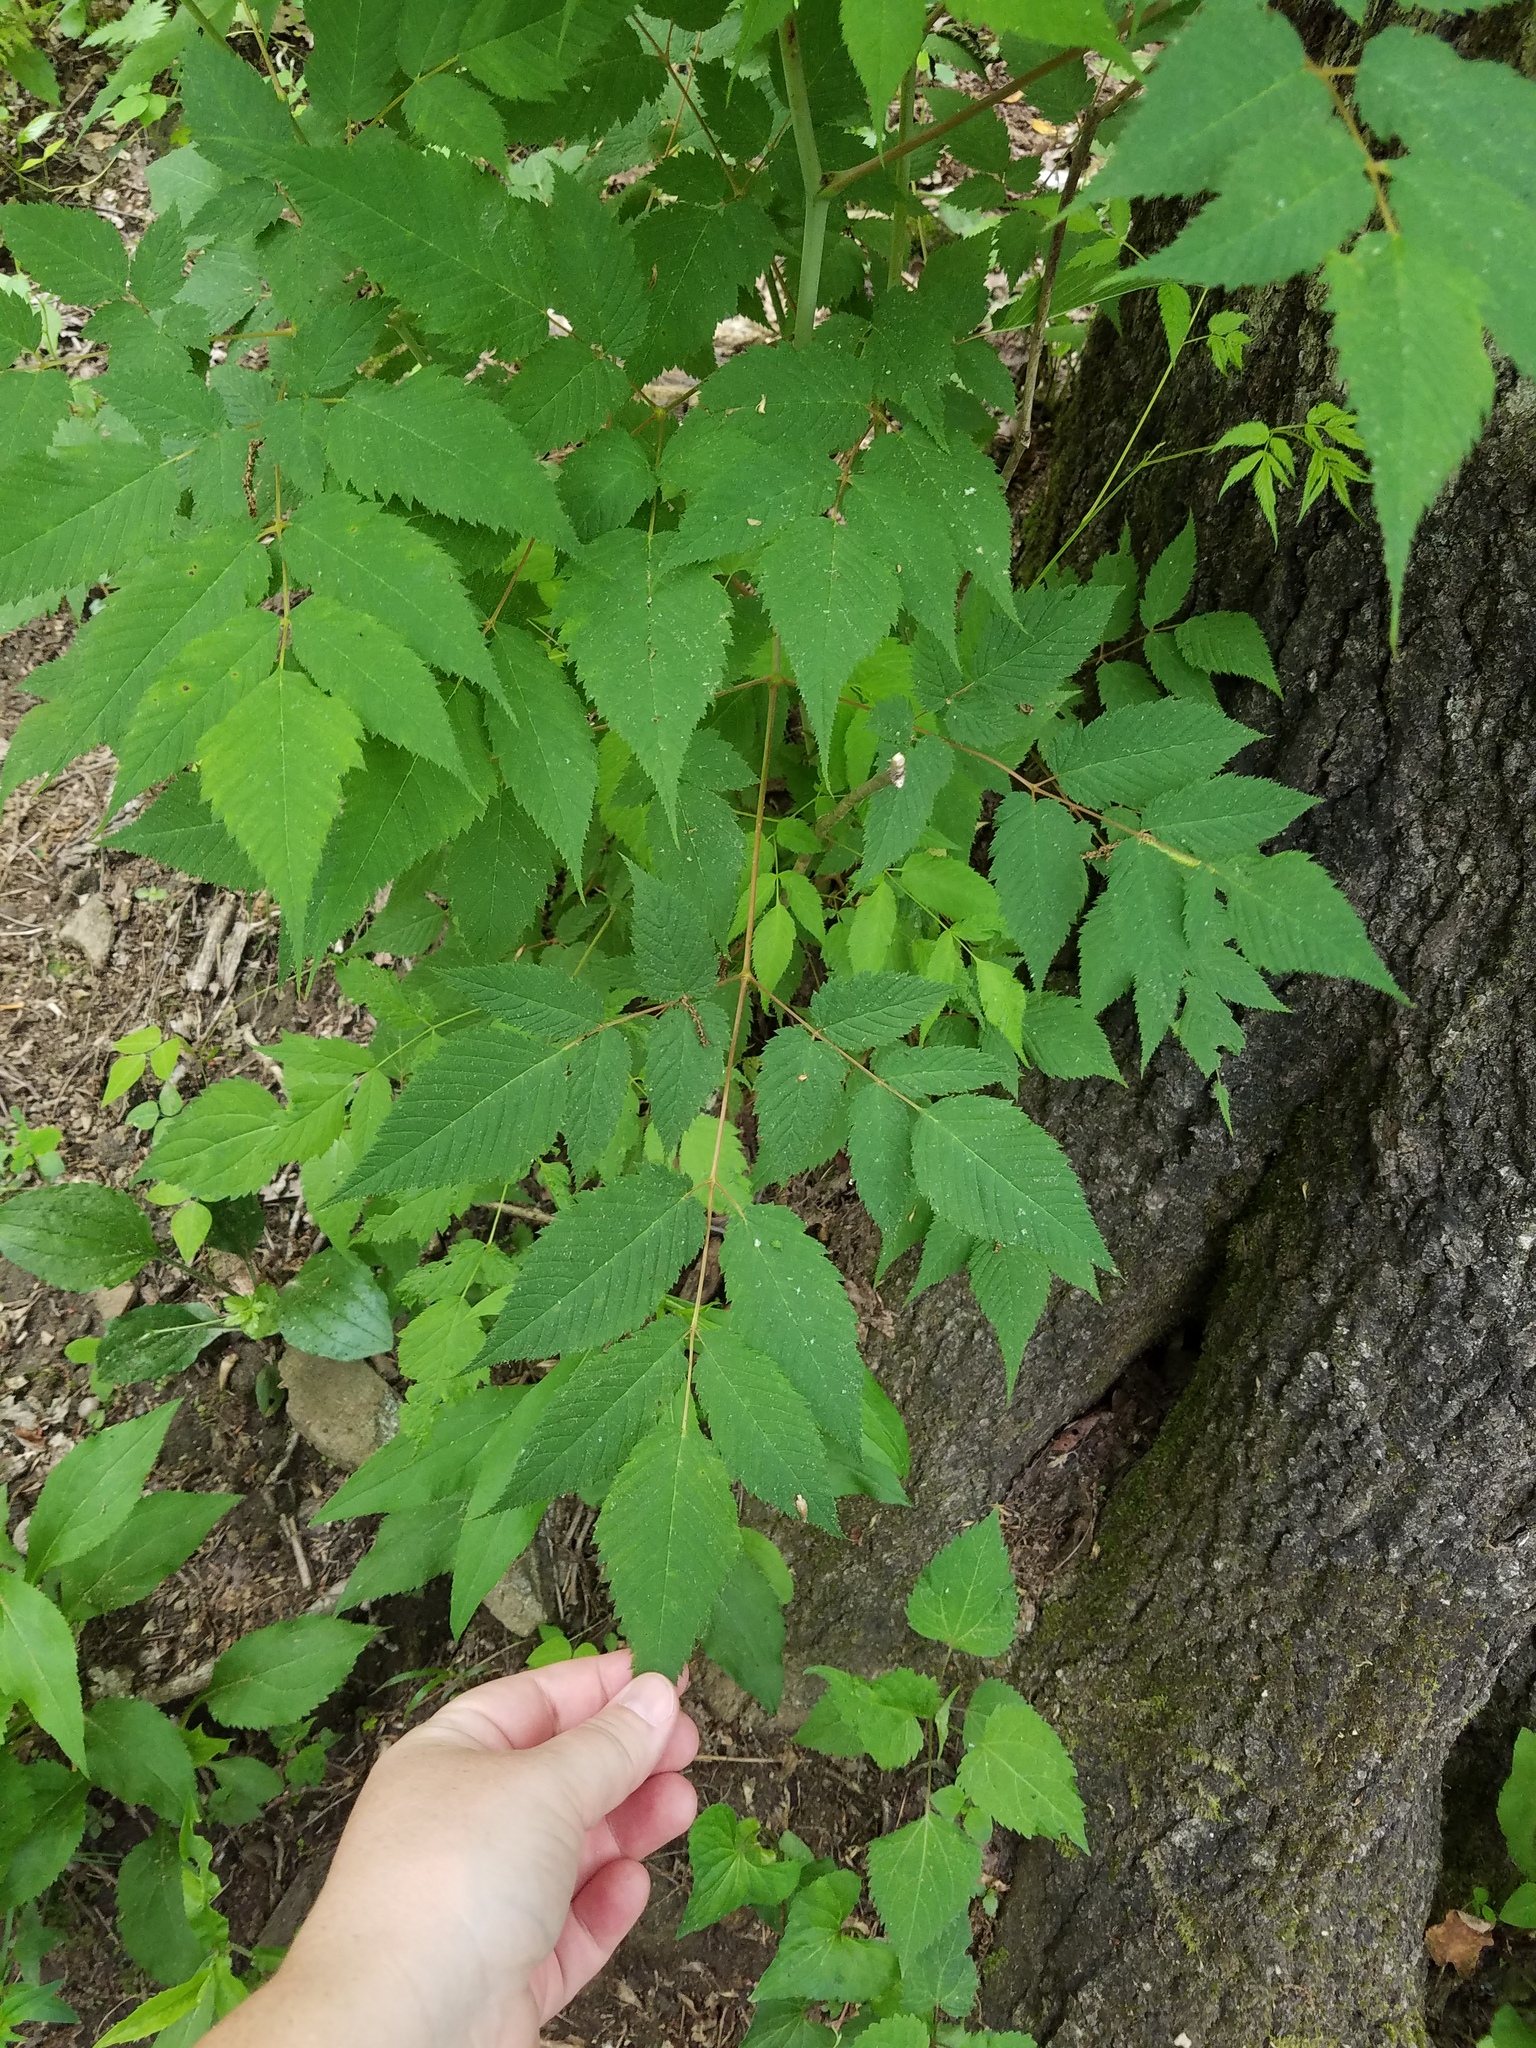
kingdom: Plantae
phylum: Tracheophyta
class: Magnoliopsida
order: Rosales
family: Rosaceae
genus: Aruncus
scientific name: Aruncus dioicus
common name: Buck's-beard
